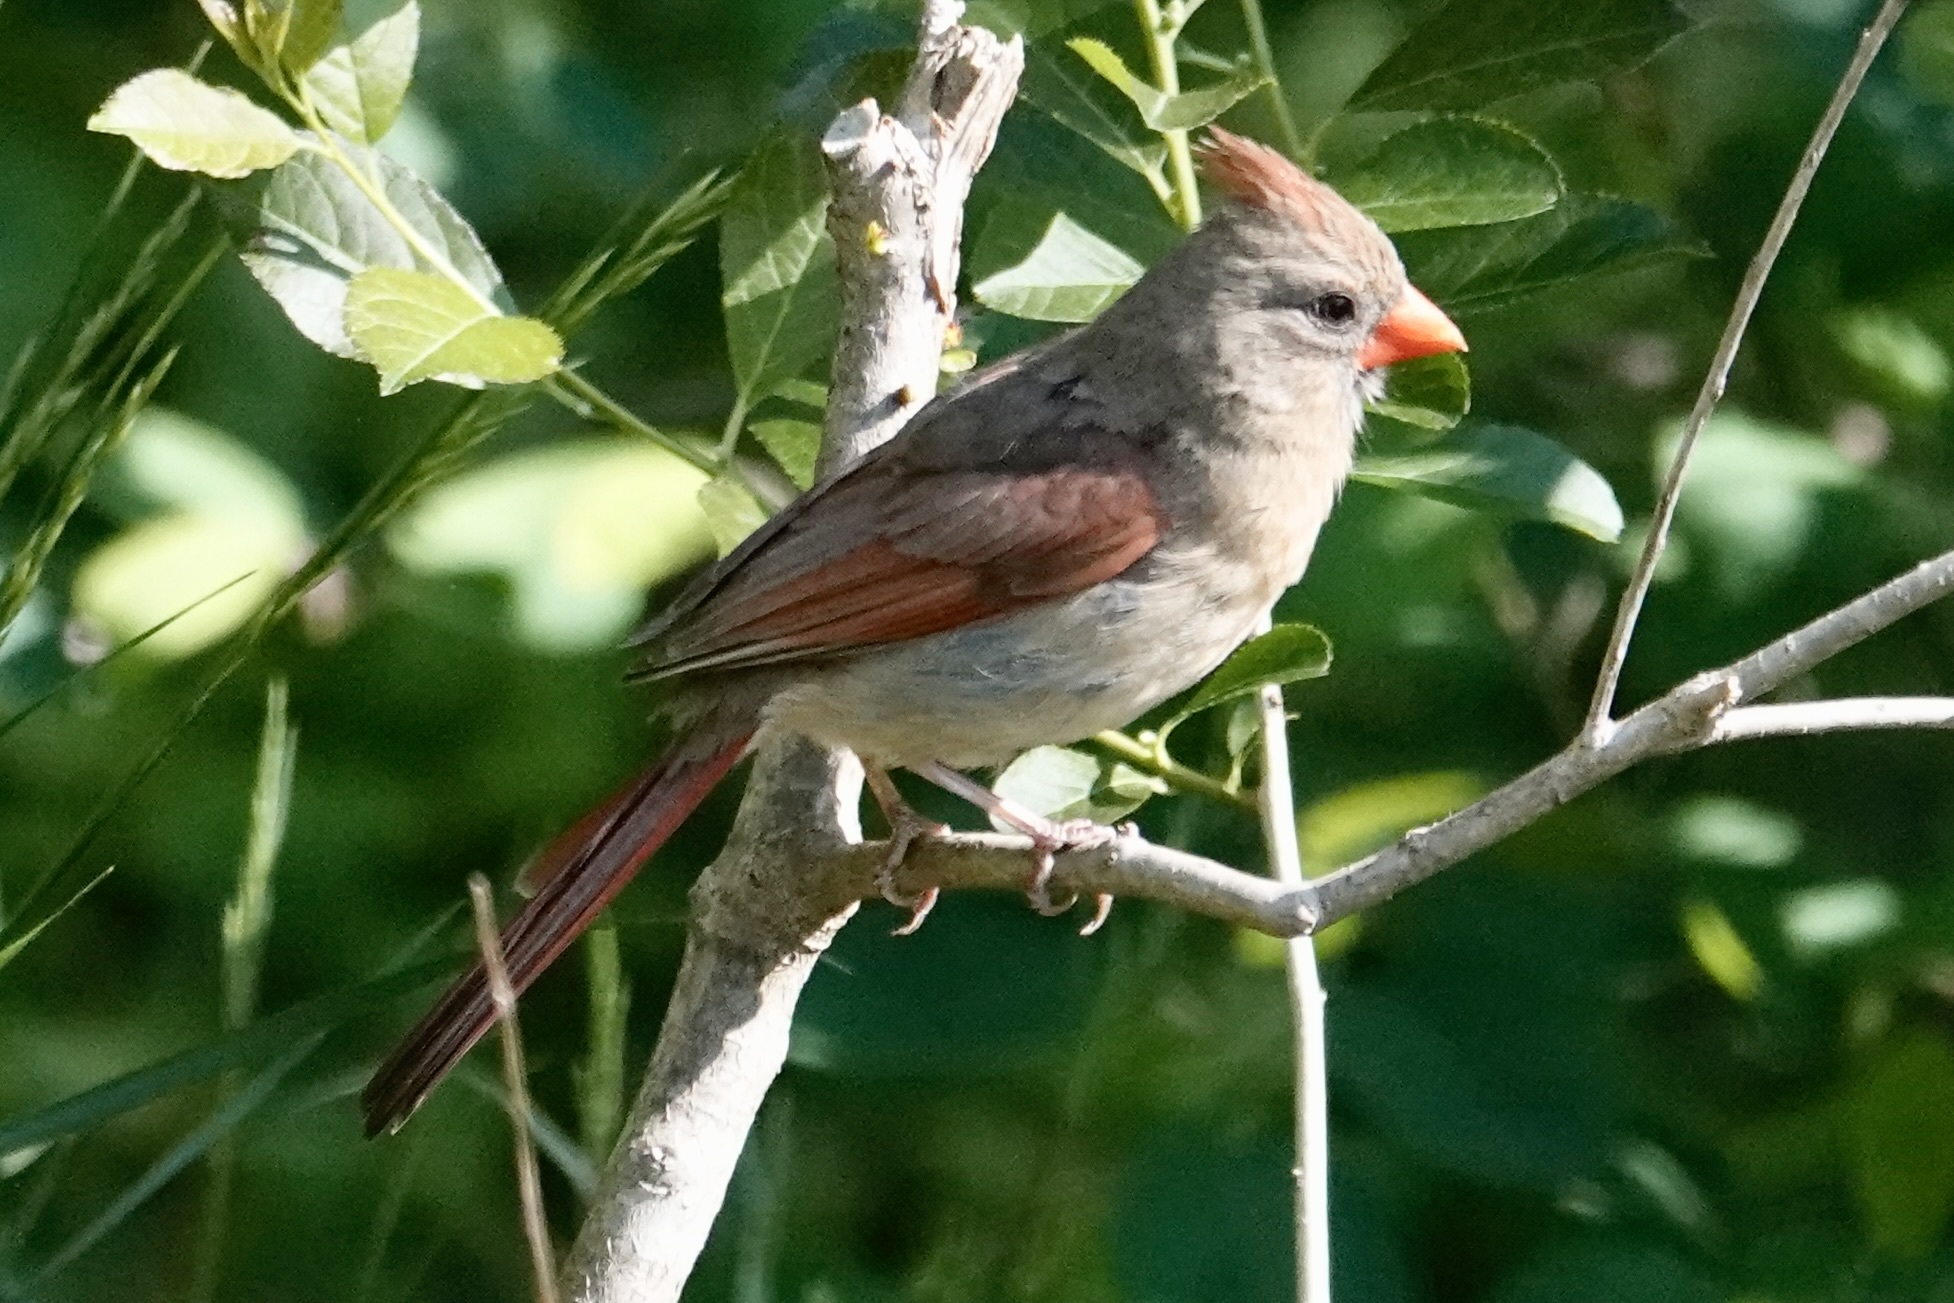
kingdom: Animalia
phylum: Chordata
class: Aves
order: Passeriformes
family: Cardinalidae
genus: Cardinalis
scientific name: Cardinalis cardinalis
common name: Northern cardinal
